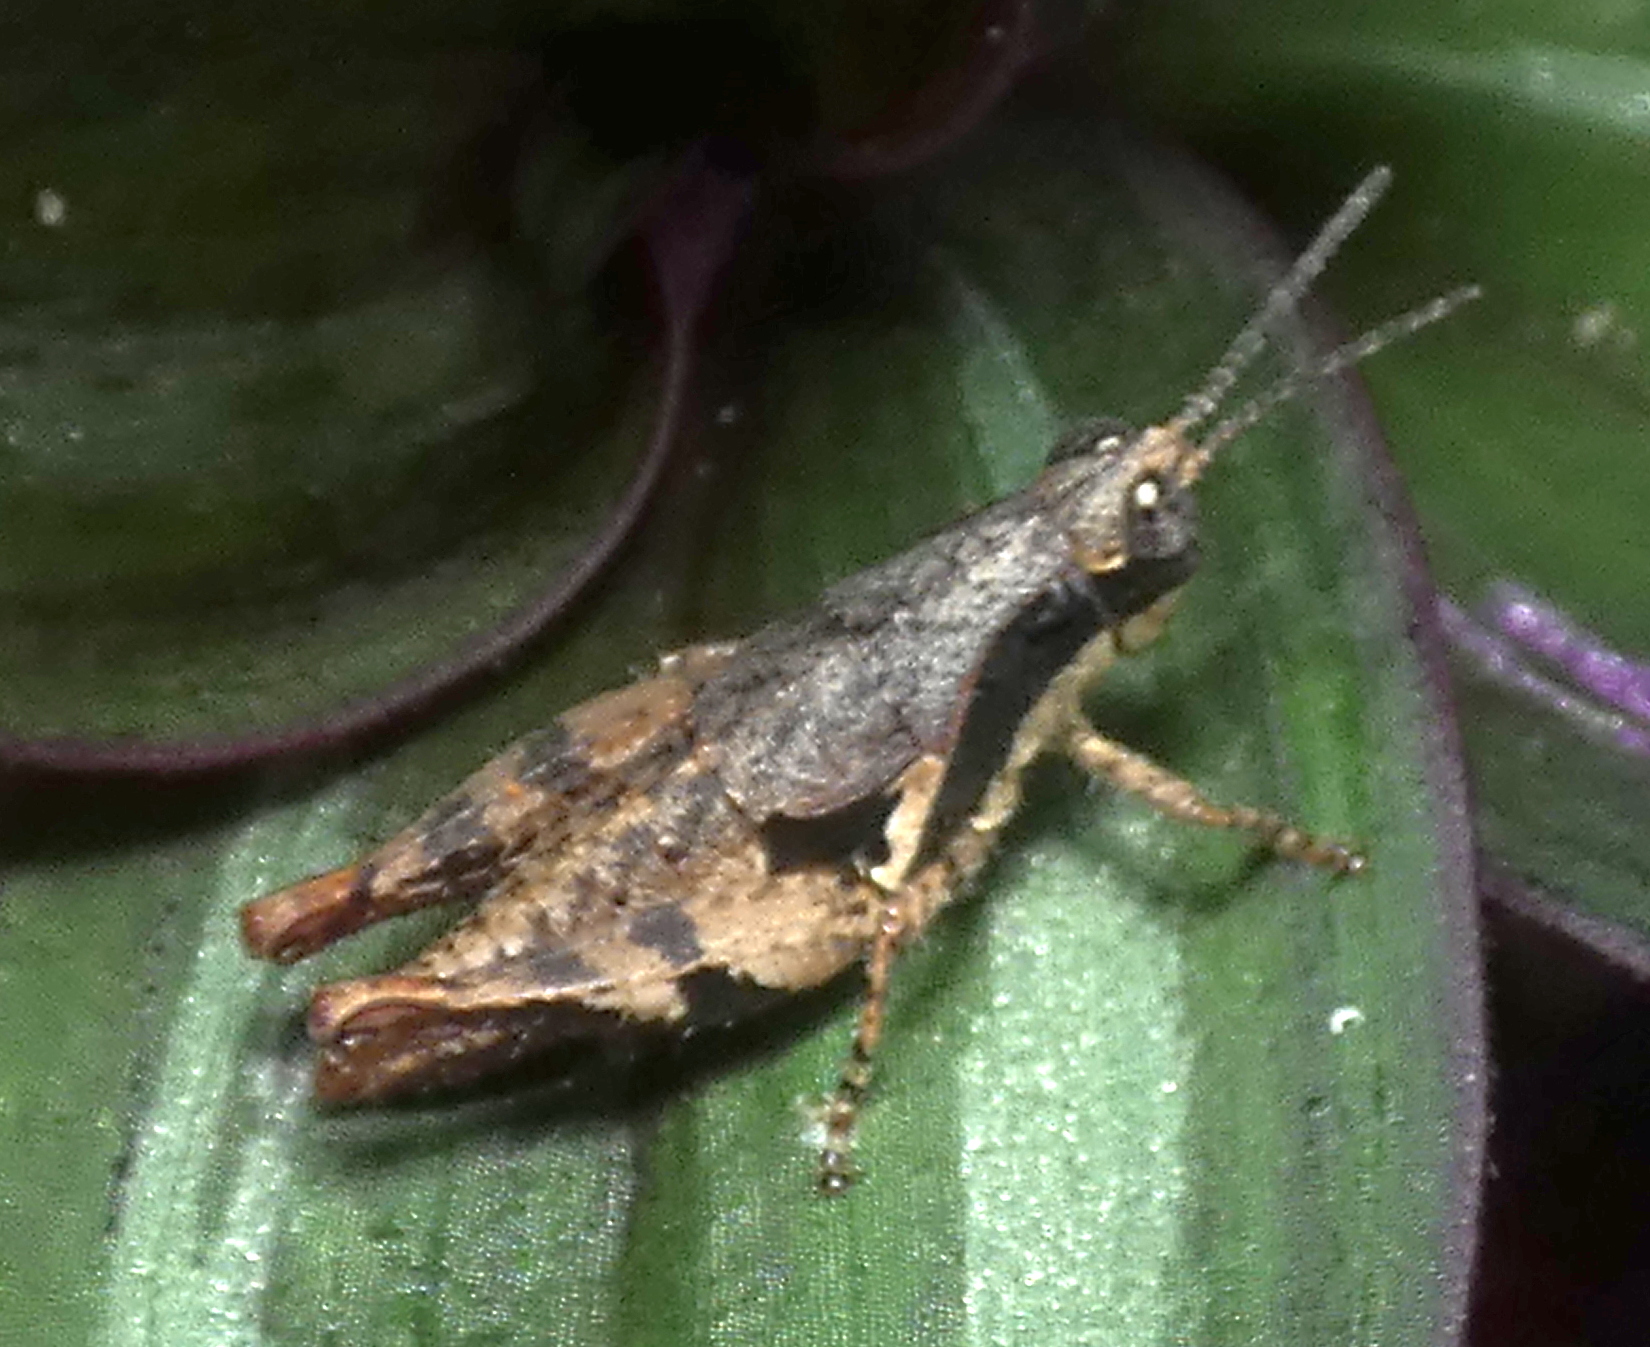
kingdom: Animalia
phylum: Arthropoda
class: Insecta
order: Orthoptera
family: Acrididae
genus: Eujivarus
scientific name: Eujivarus meridionalis
